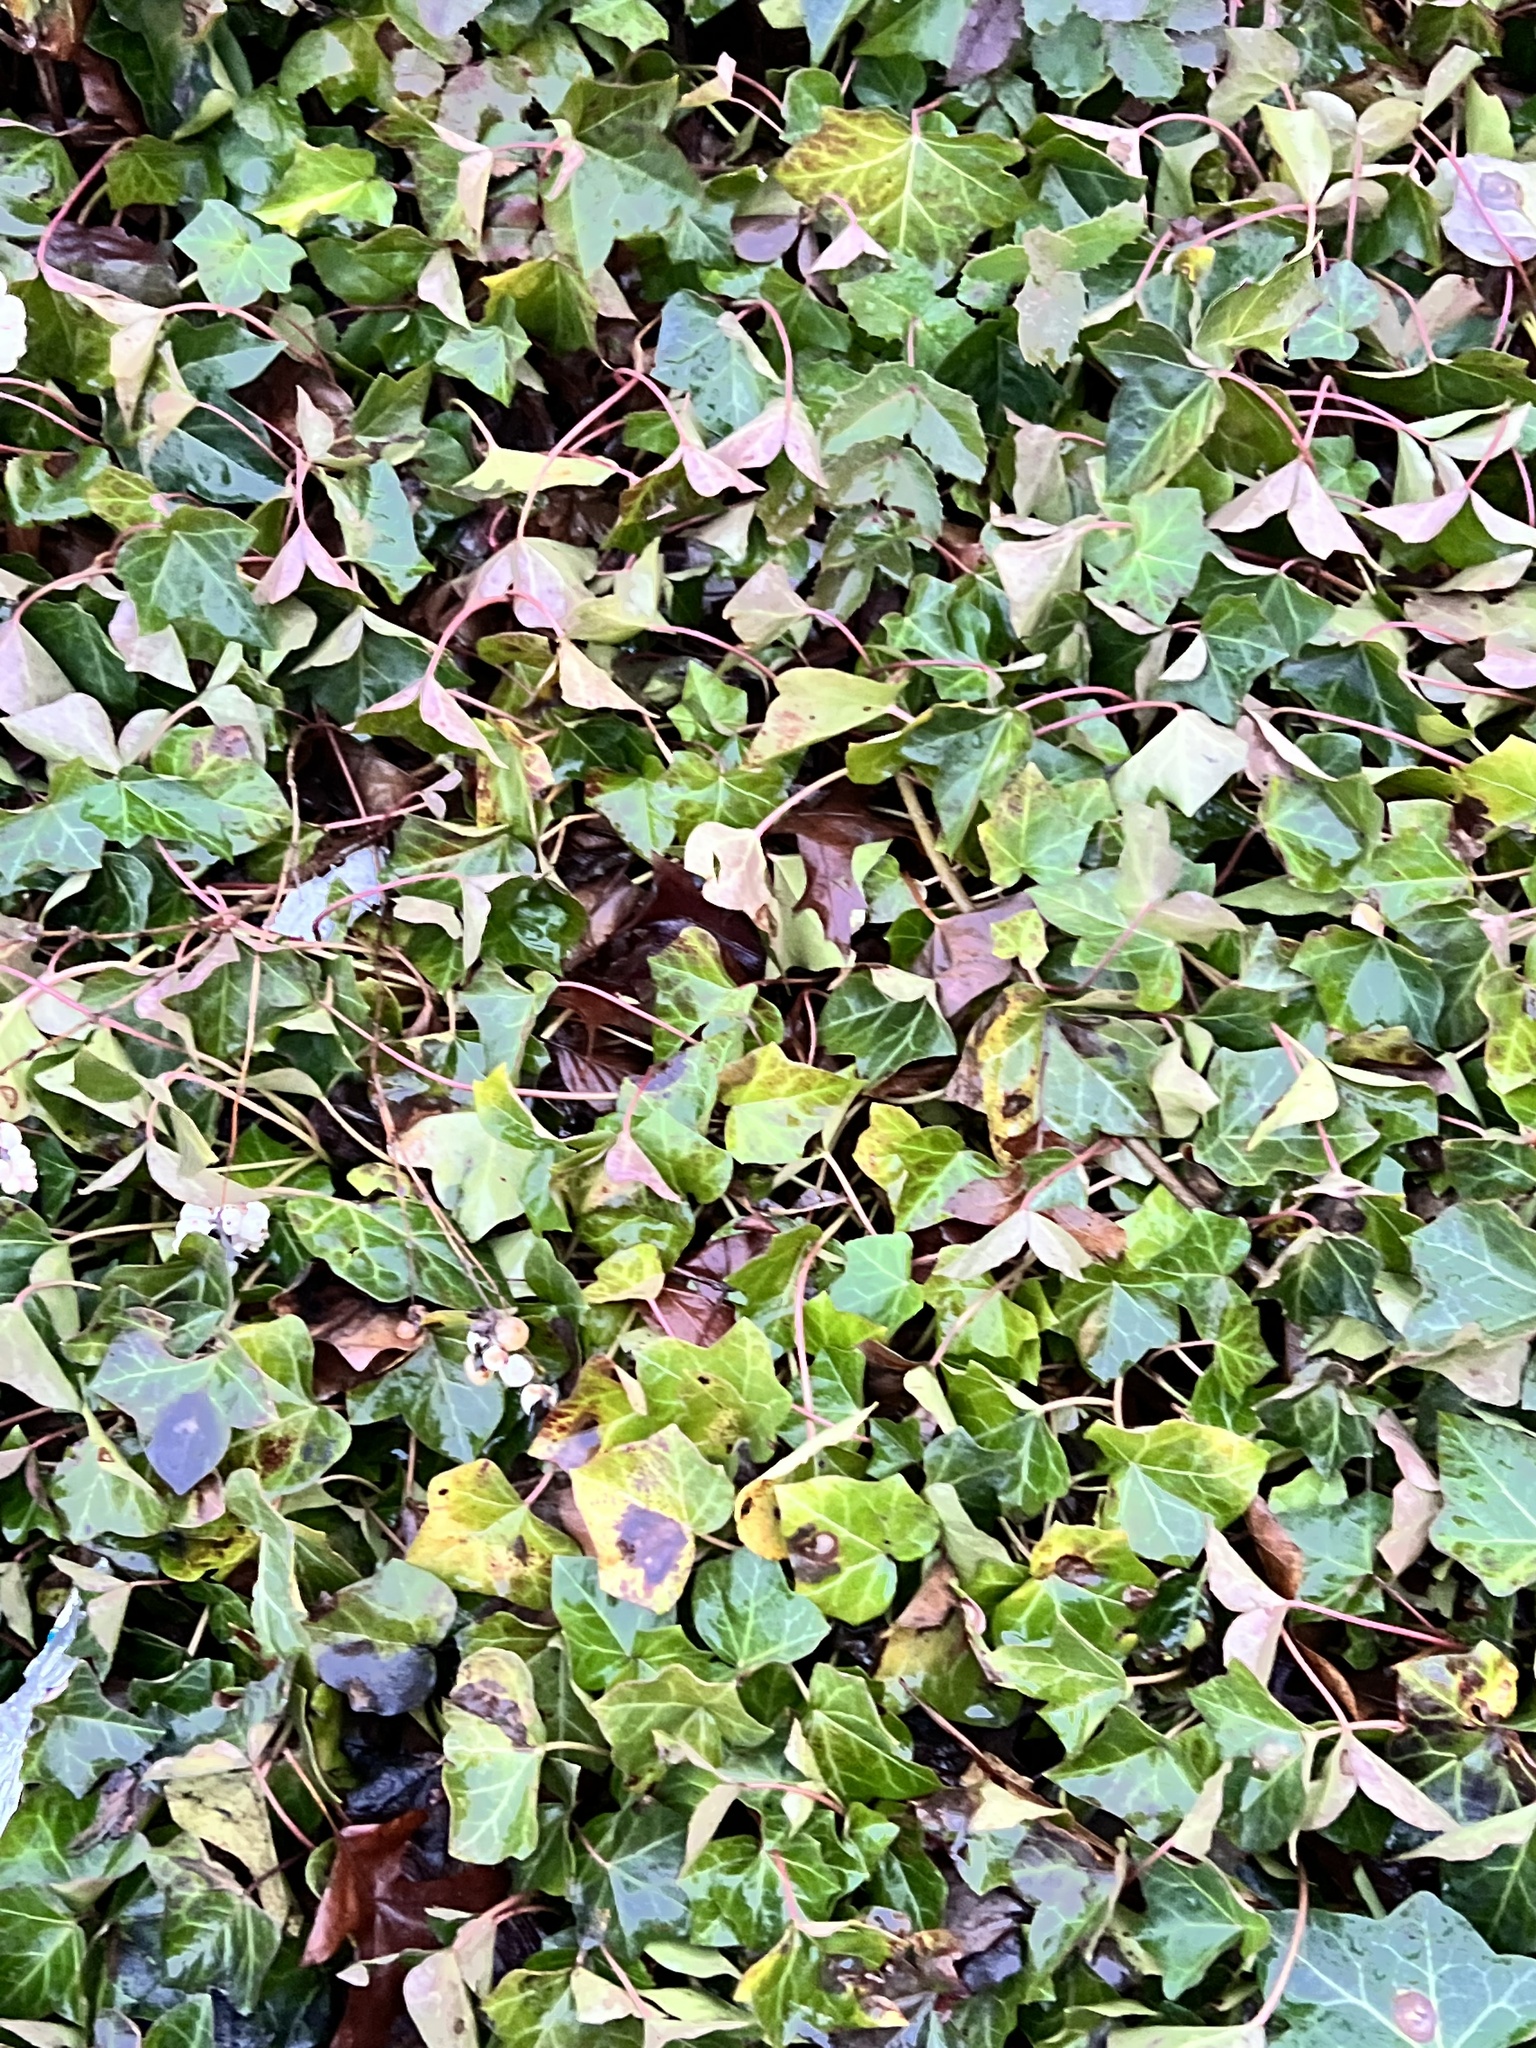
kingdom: Plantae
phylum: Tracheophyta
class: Magnoliopsida
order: Apiales
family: Araliaceae
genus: Hedera
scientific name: Hedera helix
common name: Ivy
